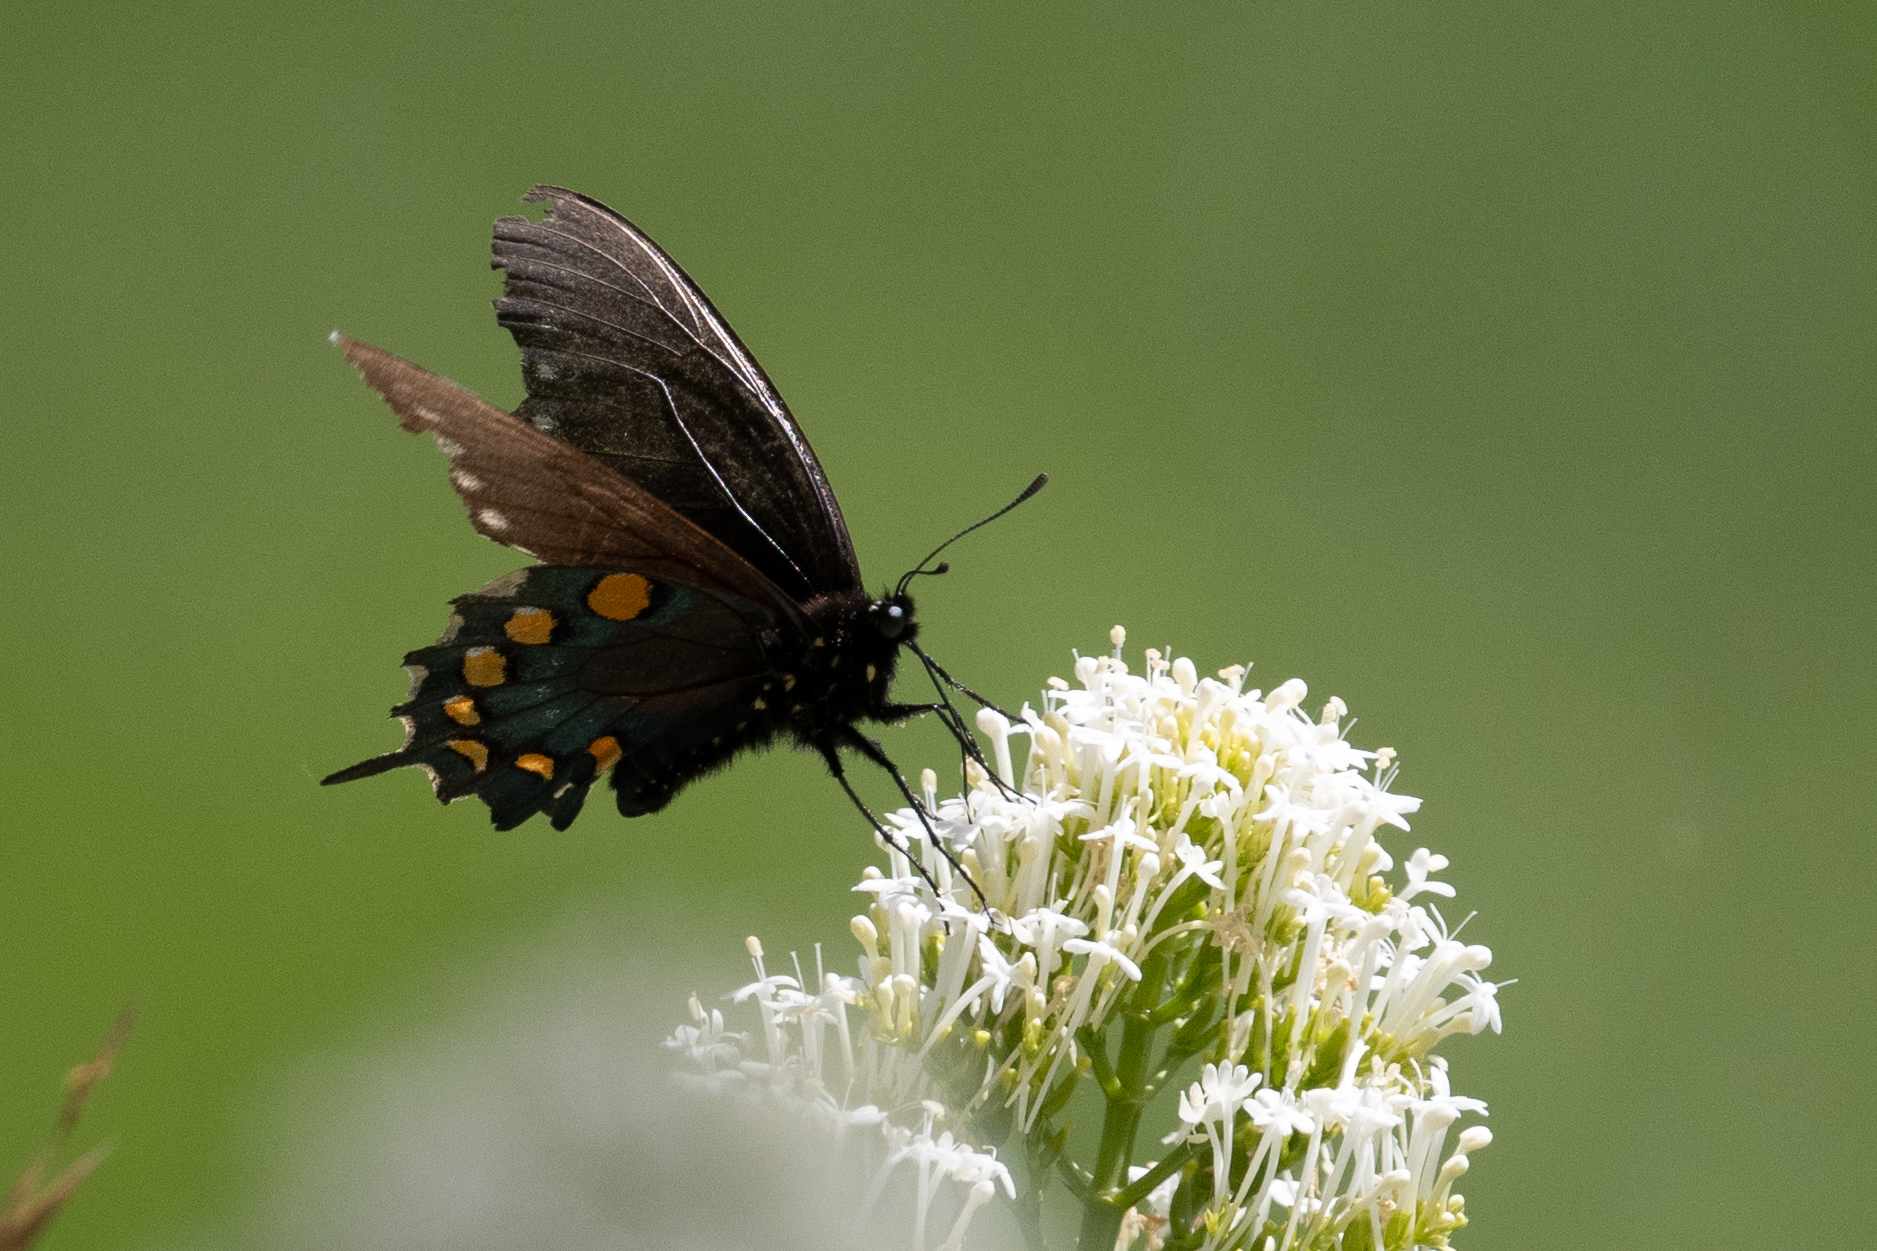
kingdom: Animalia
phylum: Arthropoda
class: Insecta
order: Lepidoptera
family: Papilionidae
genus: Battus
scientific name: Battus philenor
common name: Pipevine swallowtail
